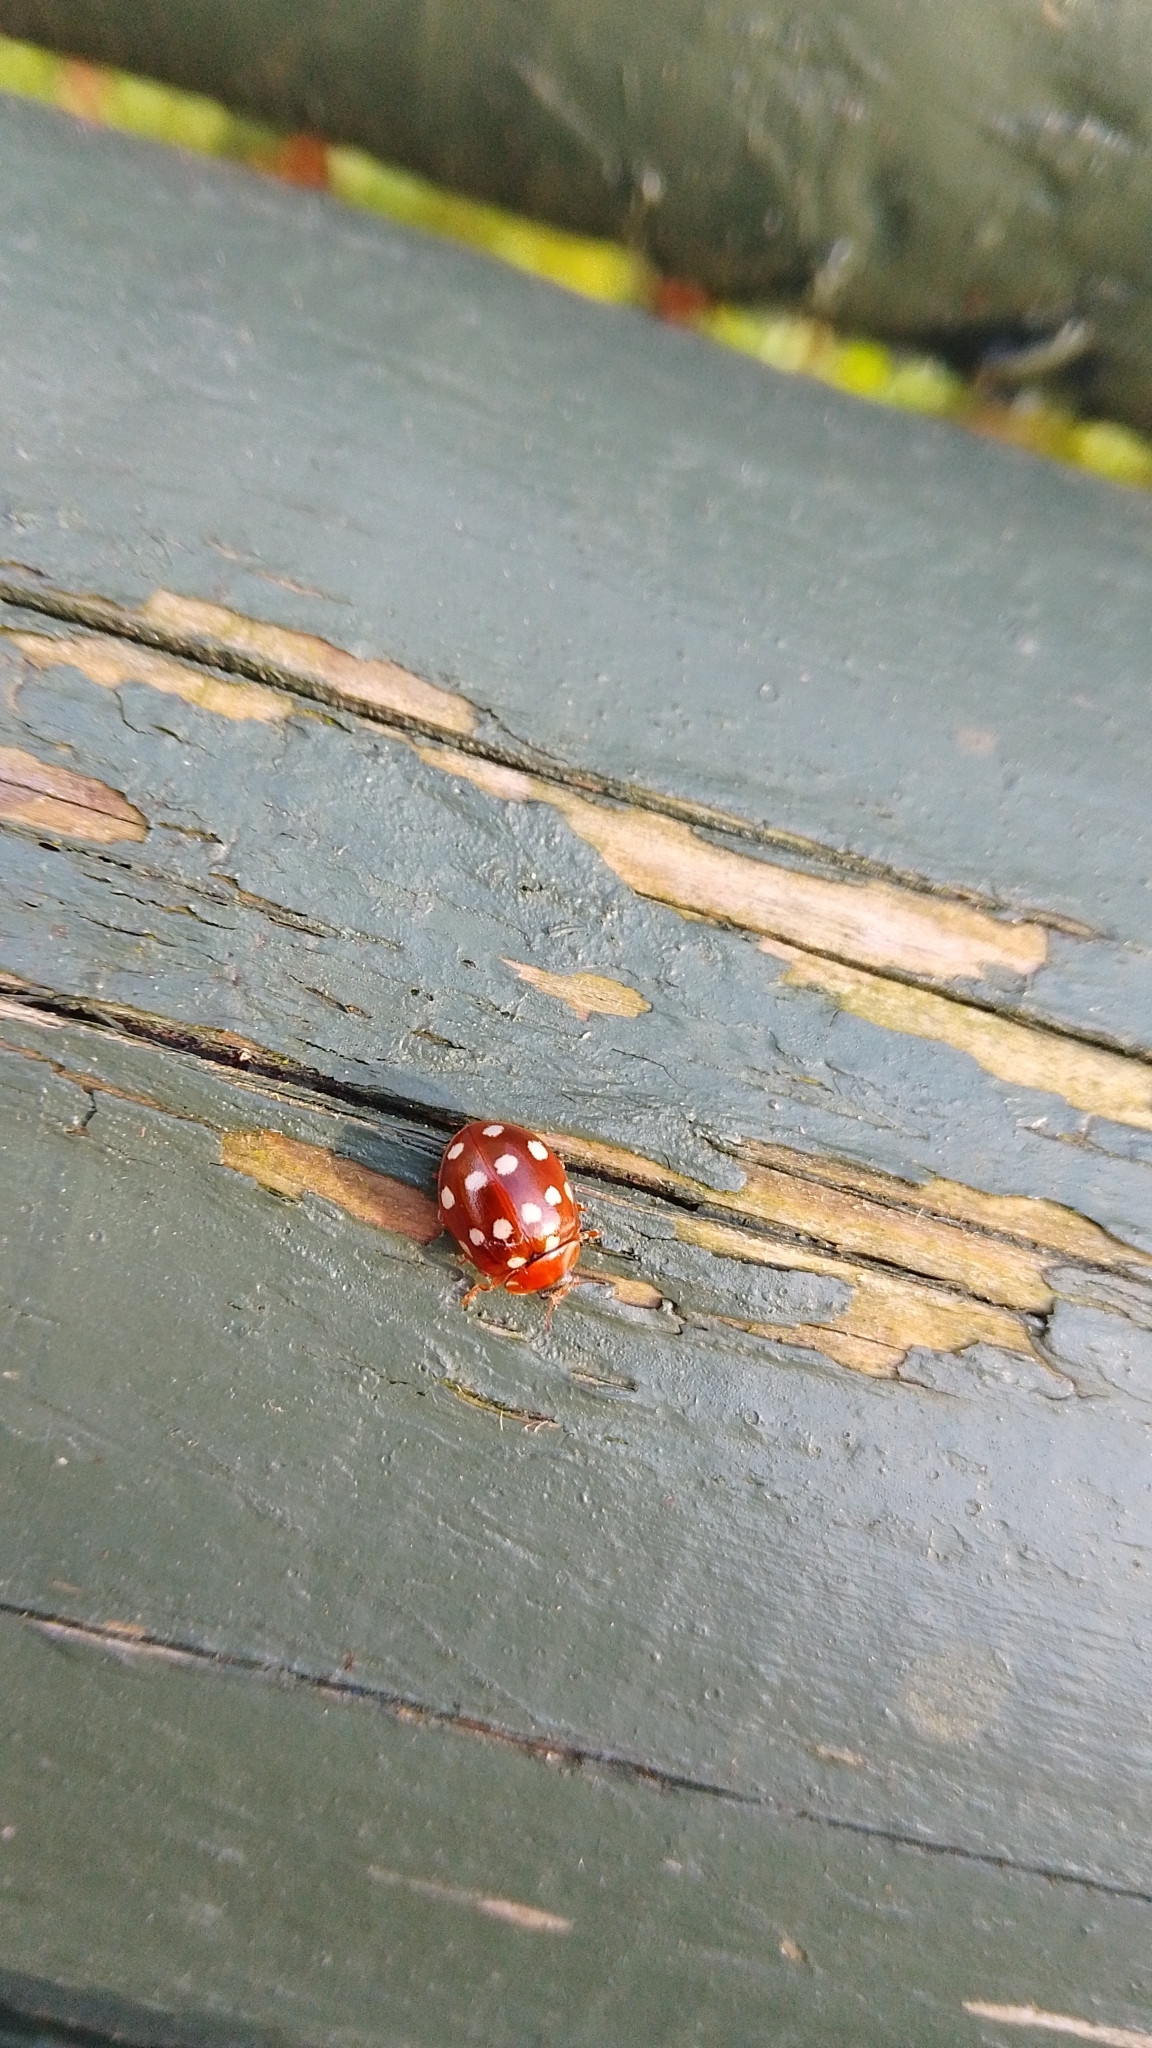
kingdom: Animalia
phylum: Arthropoda
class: Insecta
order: Coleoptera
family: Coccinellidae
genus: Calvia
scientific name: Calvia quatuordecimguttata
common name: Cream-spot ladybird
